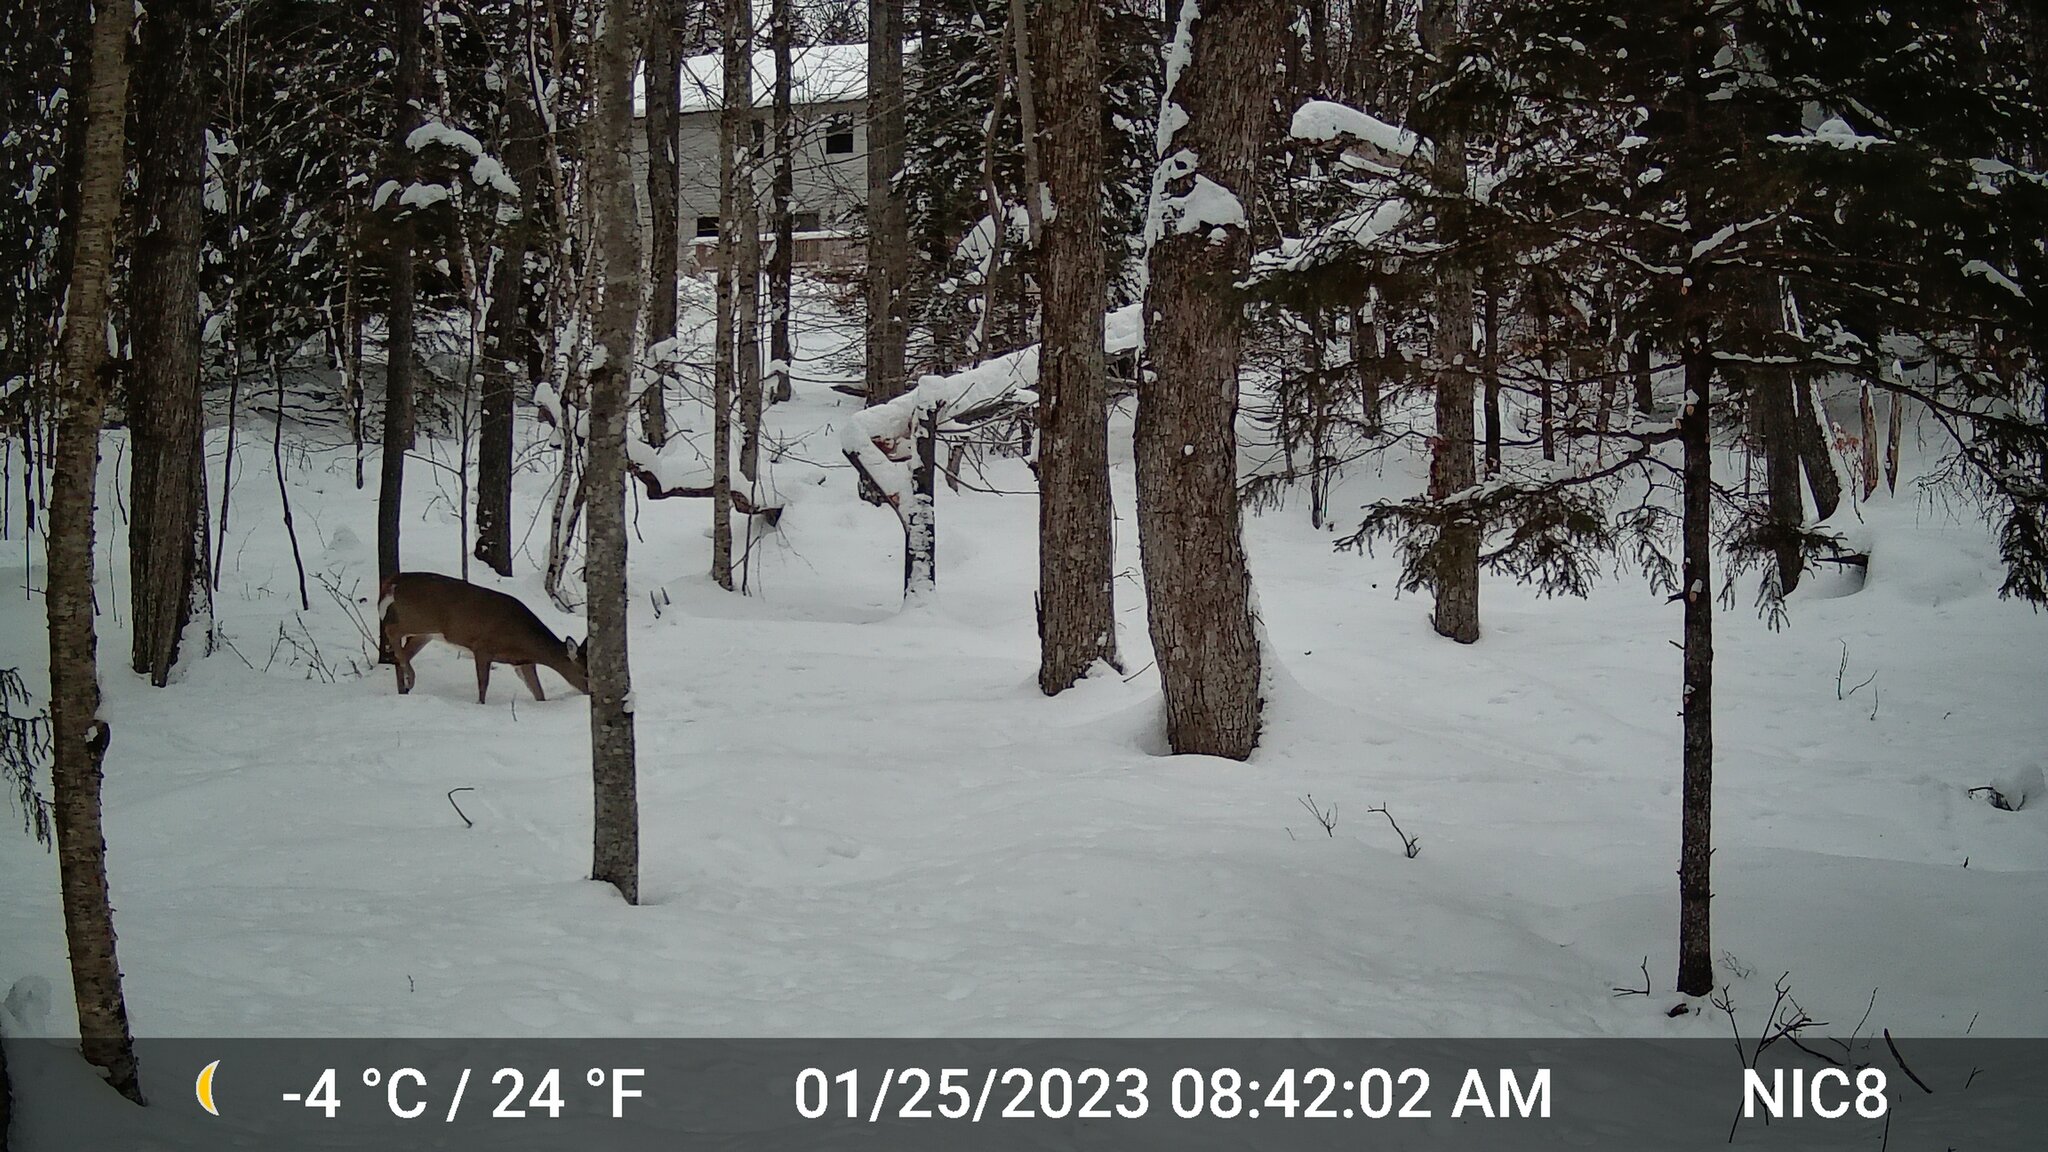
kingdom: Animalia
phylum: Chordata
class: Mammalia
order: Artiodactyla
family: Cervidae
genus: Odocoileus
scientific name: Odocoileus virginianus
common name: White-tailed deer
